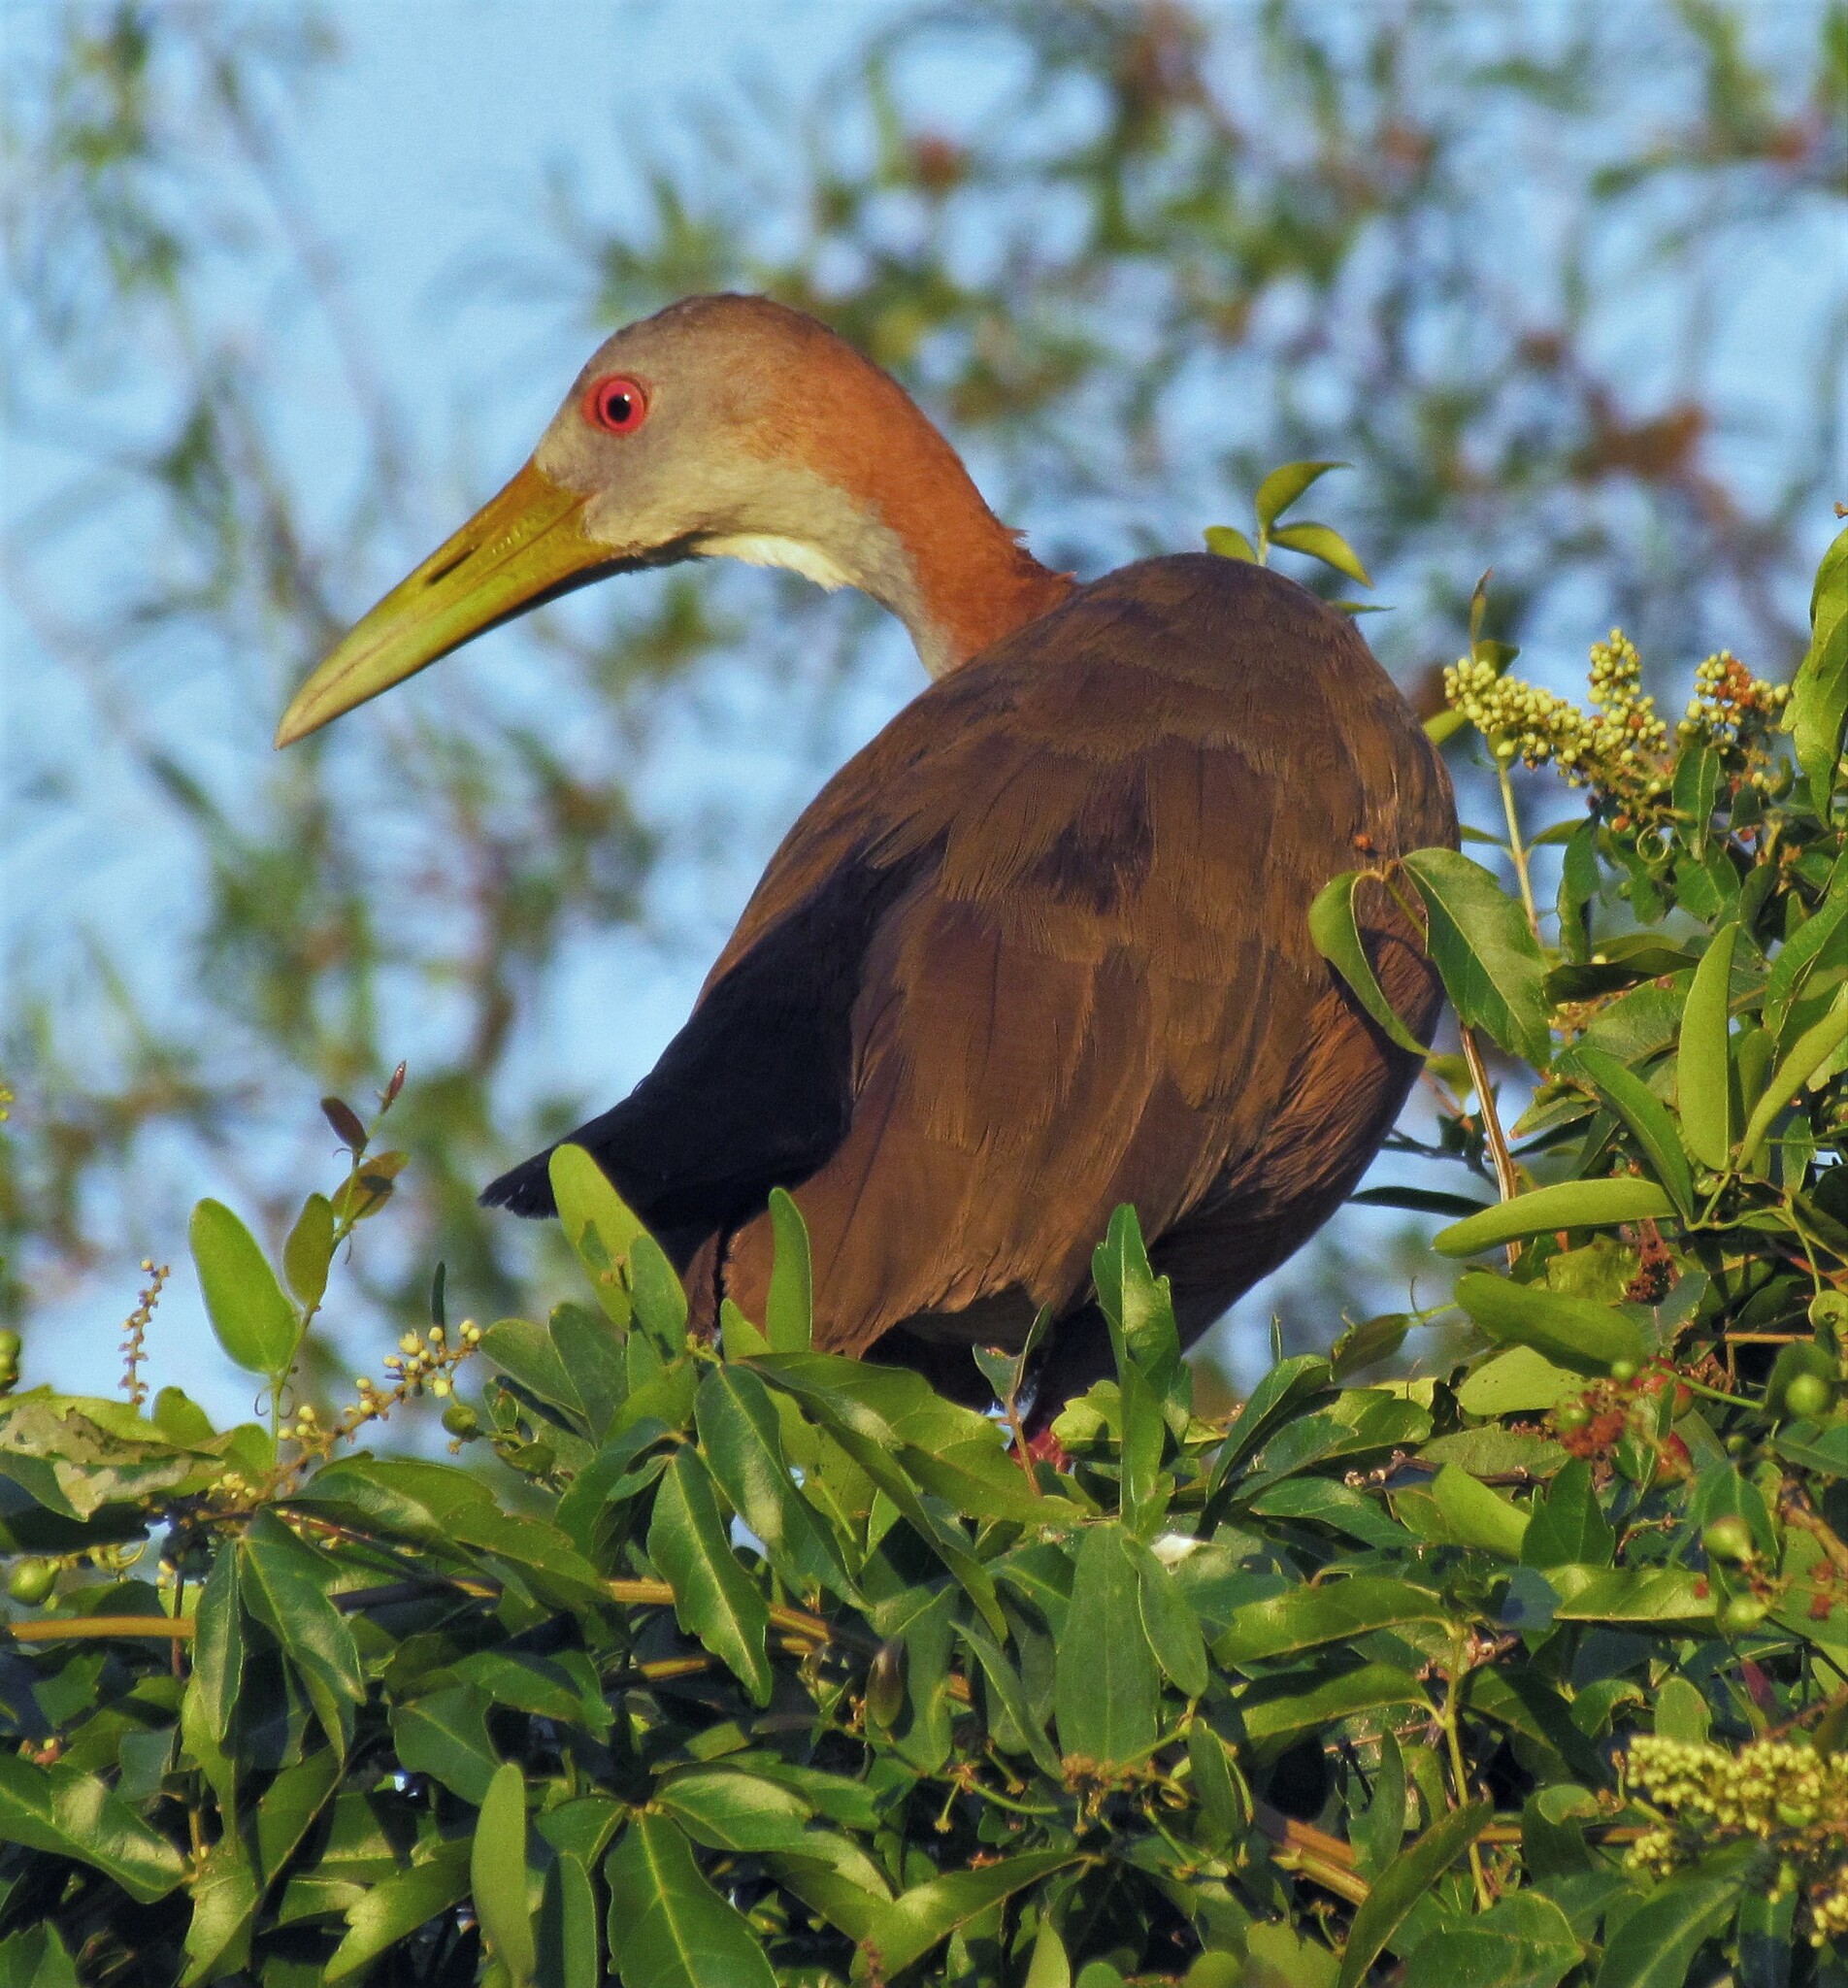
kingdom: Animalia
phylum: Chordata
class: Aves
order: Gruiformes
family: Rallidae
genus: Aramides
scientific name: Aramides ypecaha
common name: Giant wood rail
